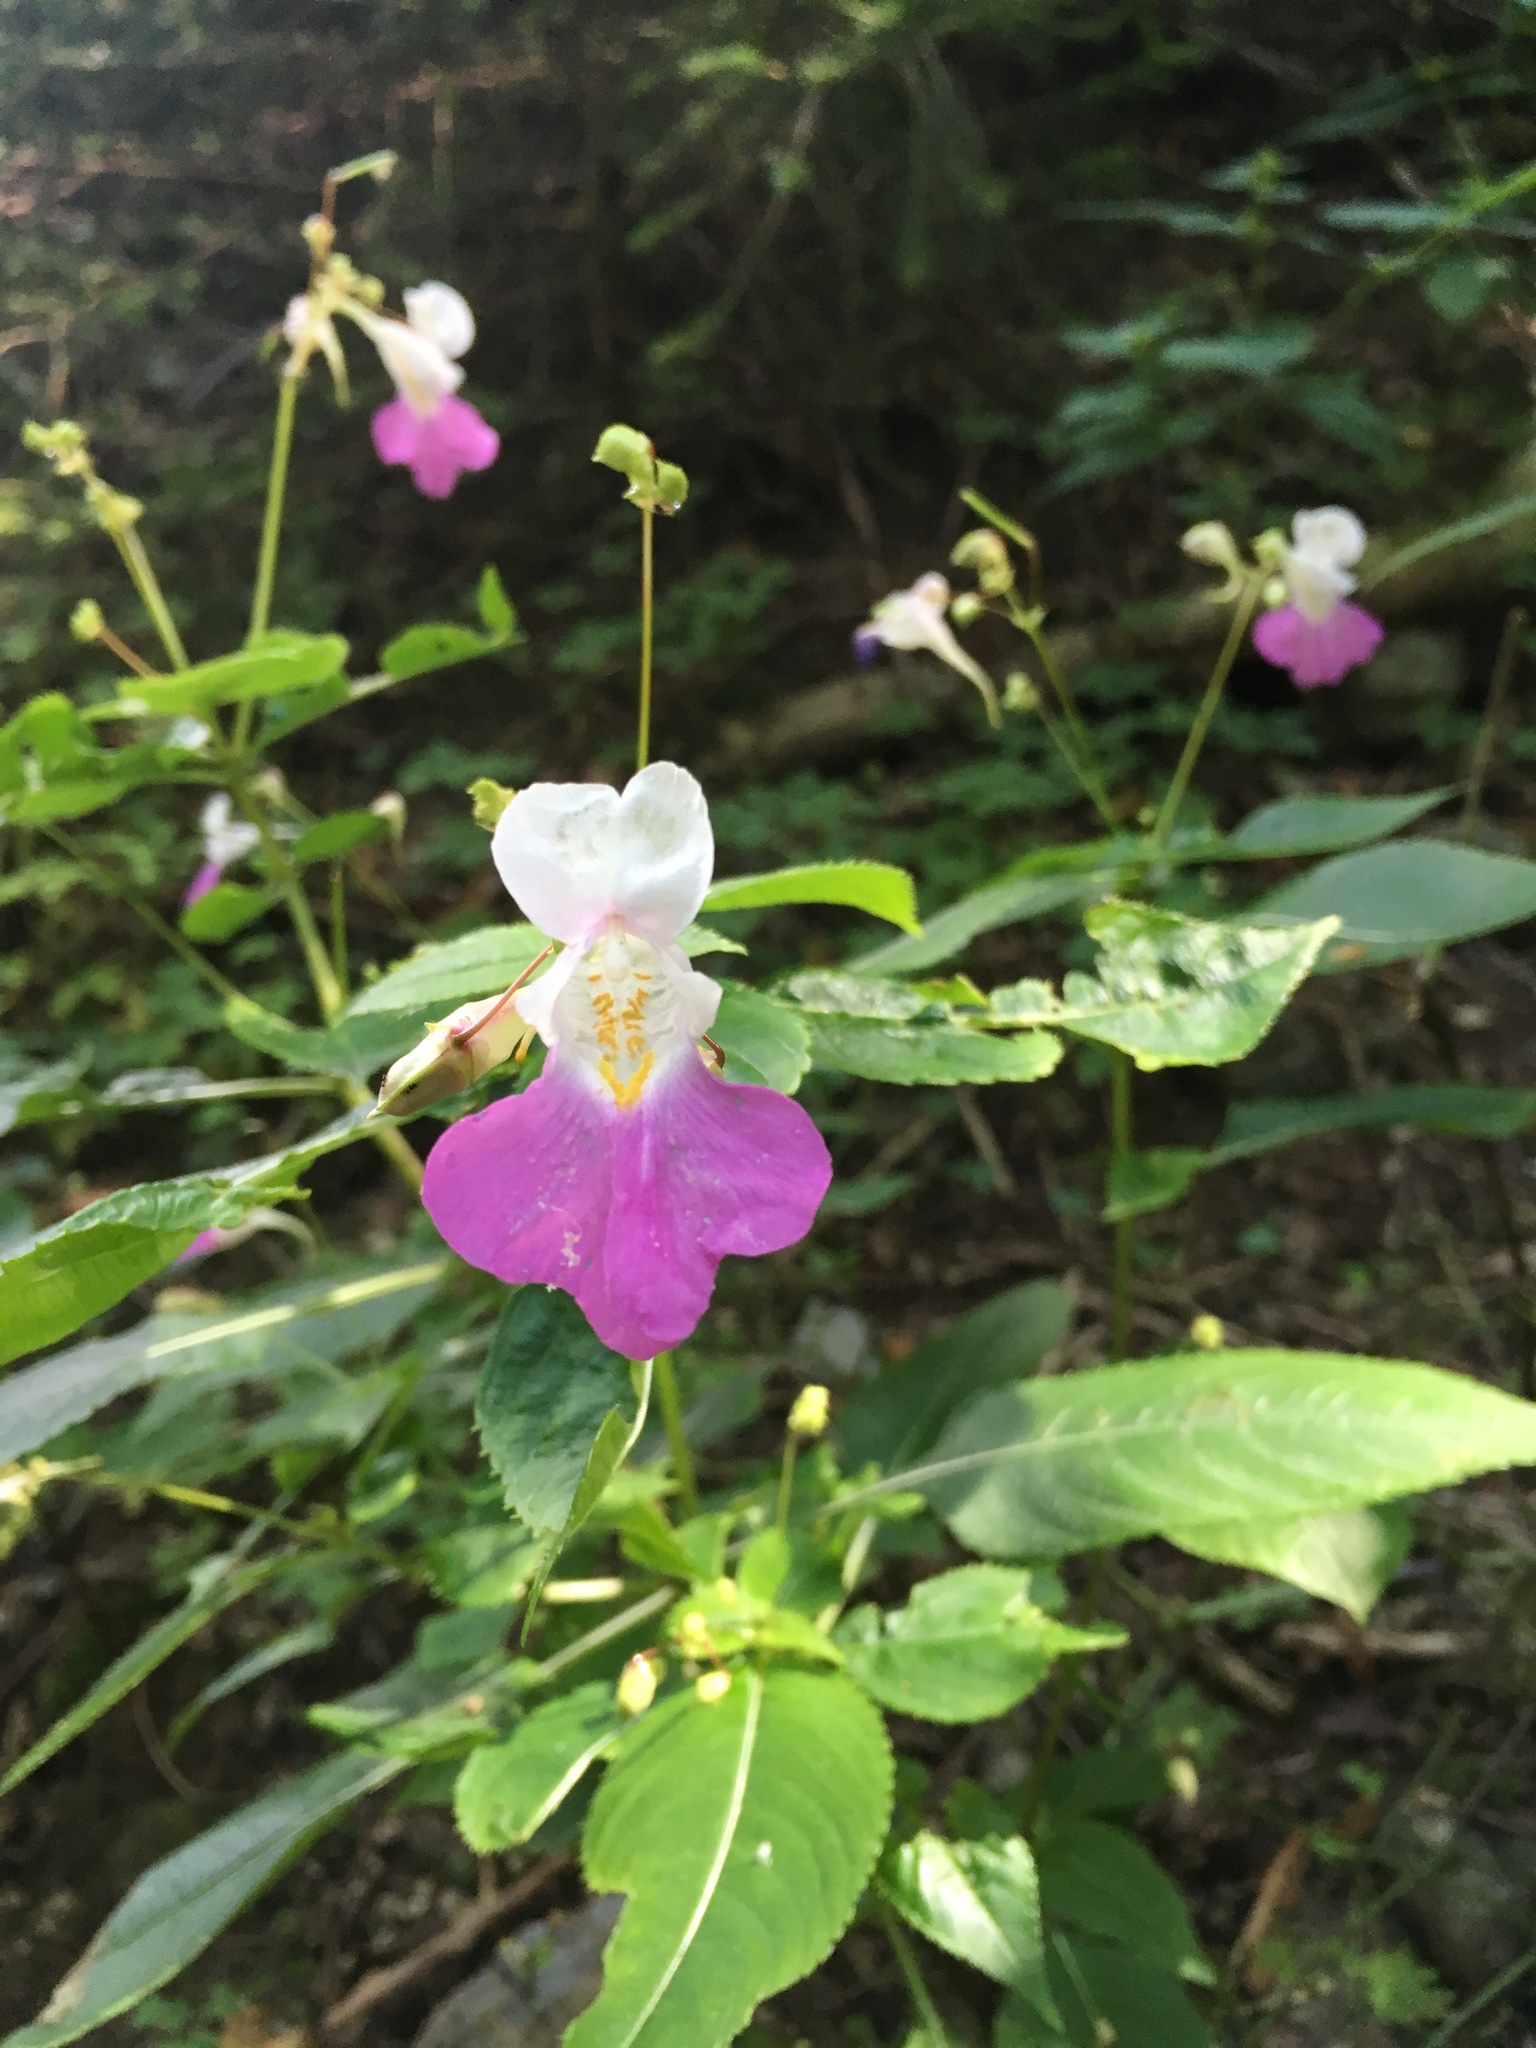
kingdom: Plantae
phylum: Tracheophyta
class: Magnoliopsida
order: Ericales
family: Balsaminaceae
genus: Impatiens
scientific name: Impatiens balfourii
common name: Balfour's touch-me-not
